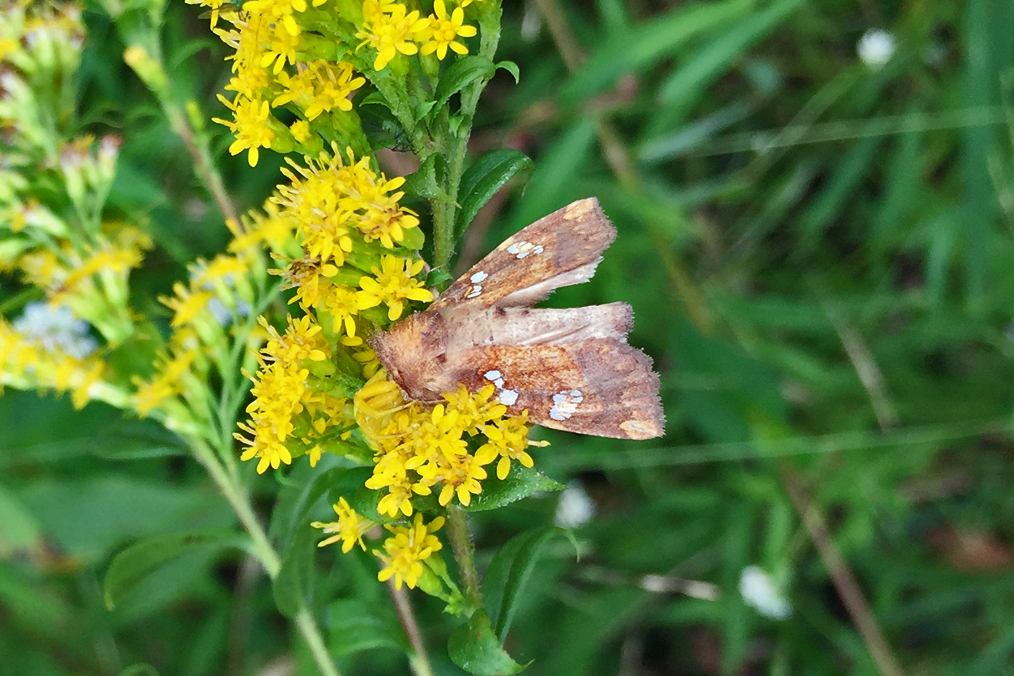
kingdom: Animalia
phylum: Arthropoda
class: Insecta
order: Lepidoptera
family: Noctuidae
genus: Papaipema
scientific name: Papaipema baptisiae
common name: Wild indigo borer moth
